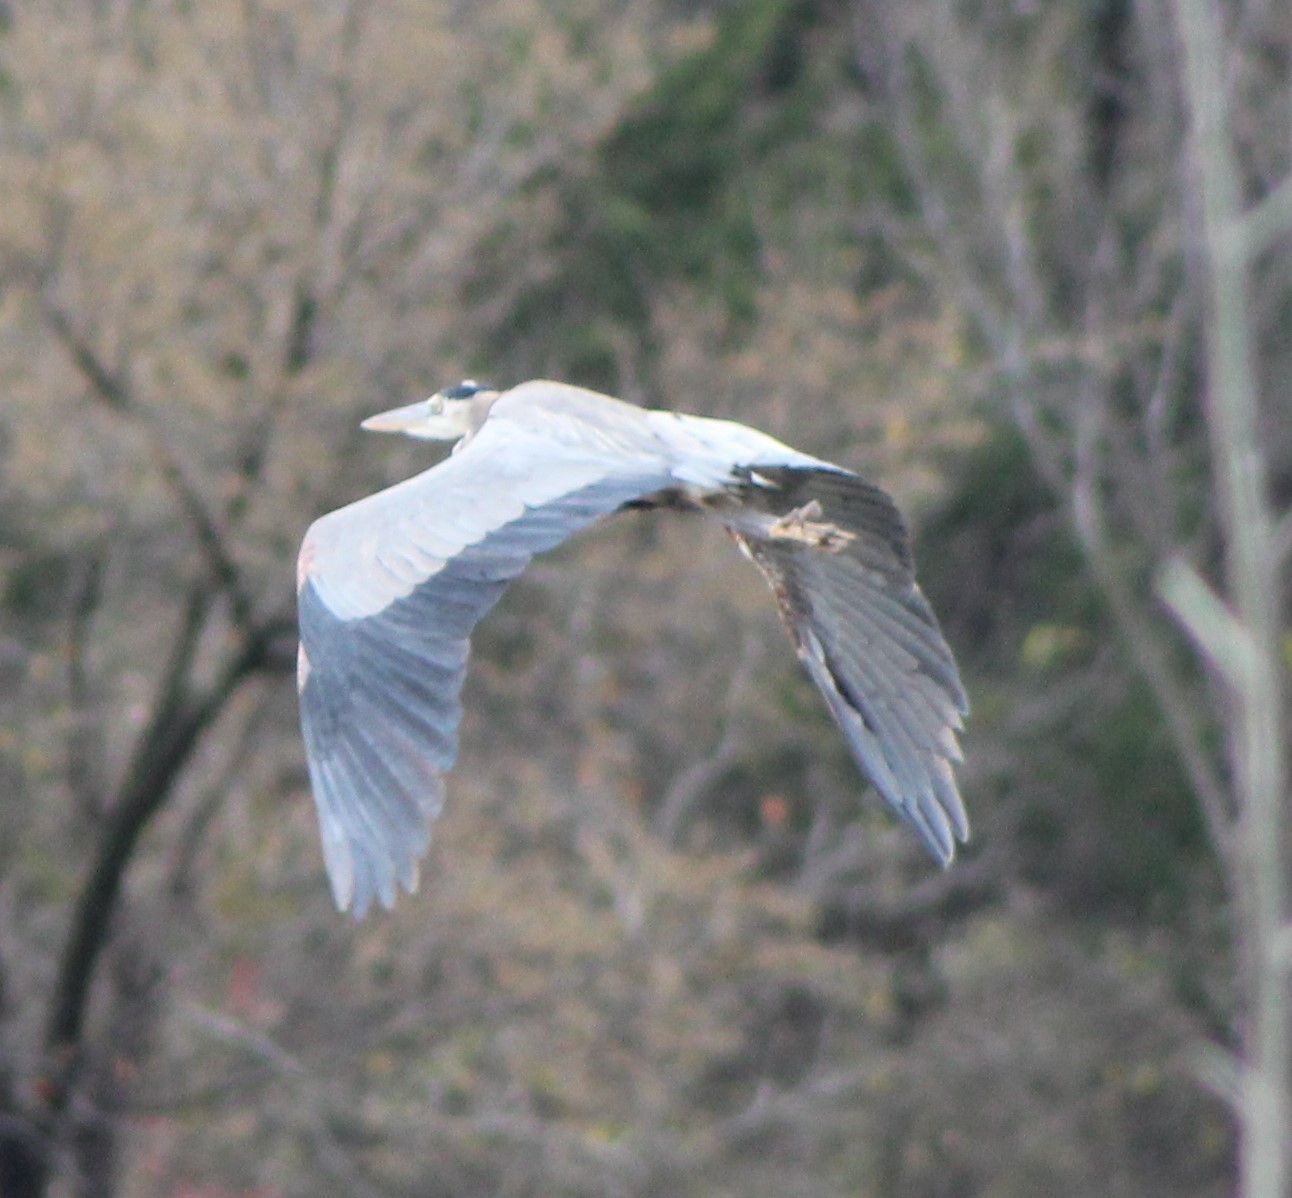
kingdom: Animalia
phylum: Chordata
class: Aves
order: Pelecaniformes
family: Ardeidae
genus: Ardea
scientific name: Ardea herodias
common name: Great blue heron
